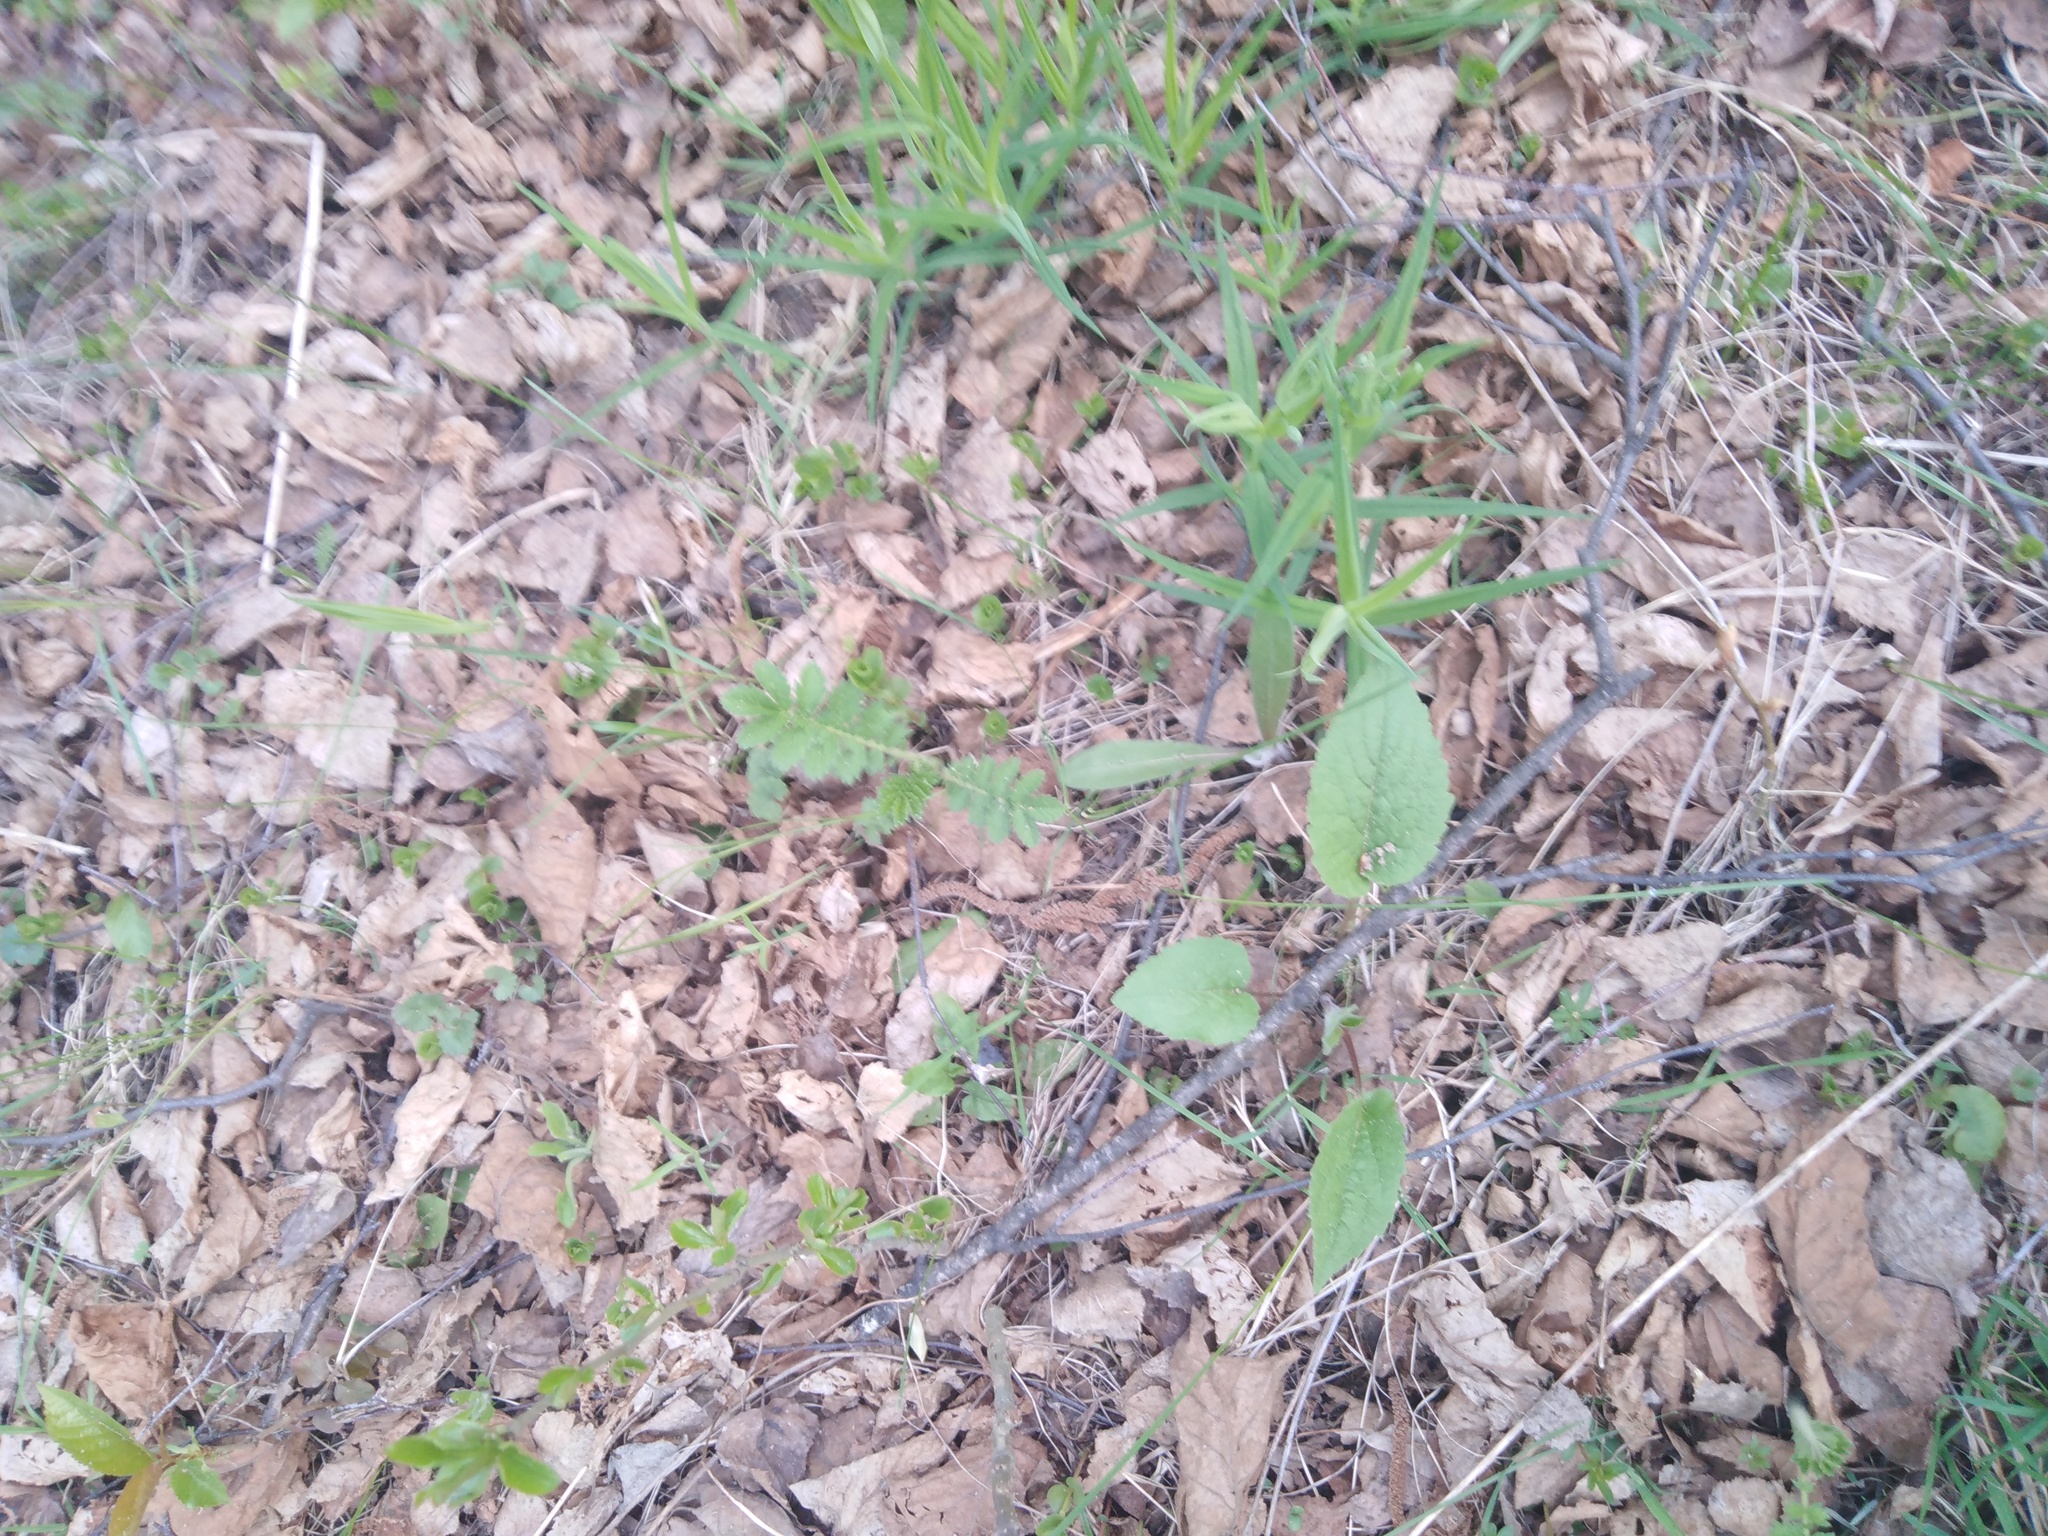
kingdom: Plantae
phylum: Tracheophyta
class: Magnoliopsida
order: Caryophyllales
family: Caryophyllaceae
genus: Rabelera
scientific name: Rabelera holostea
